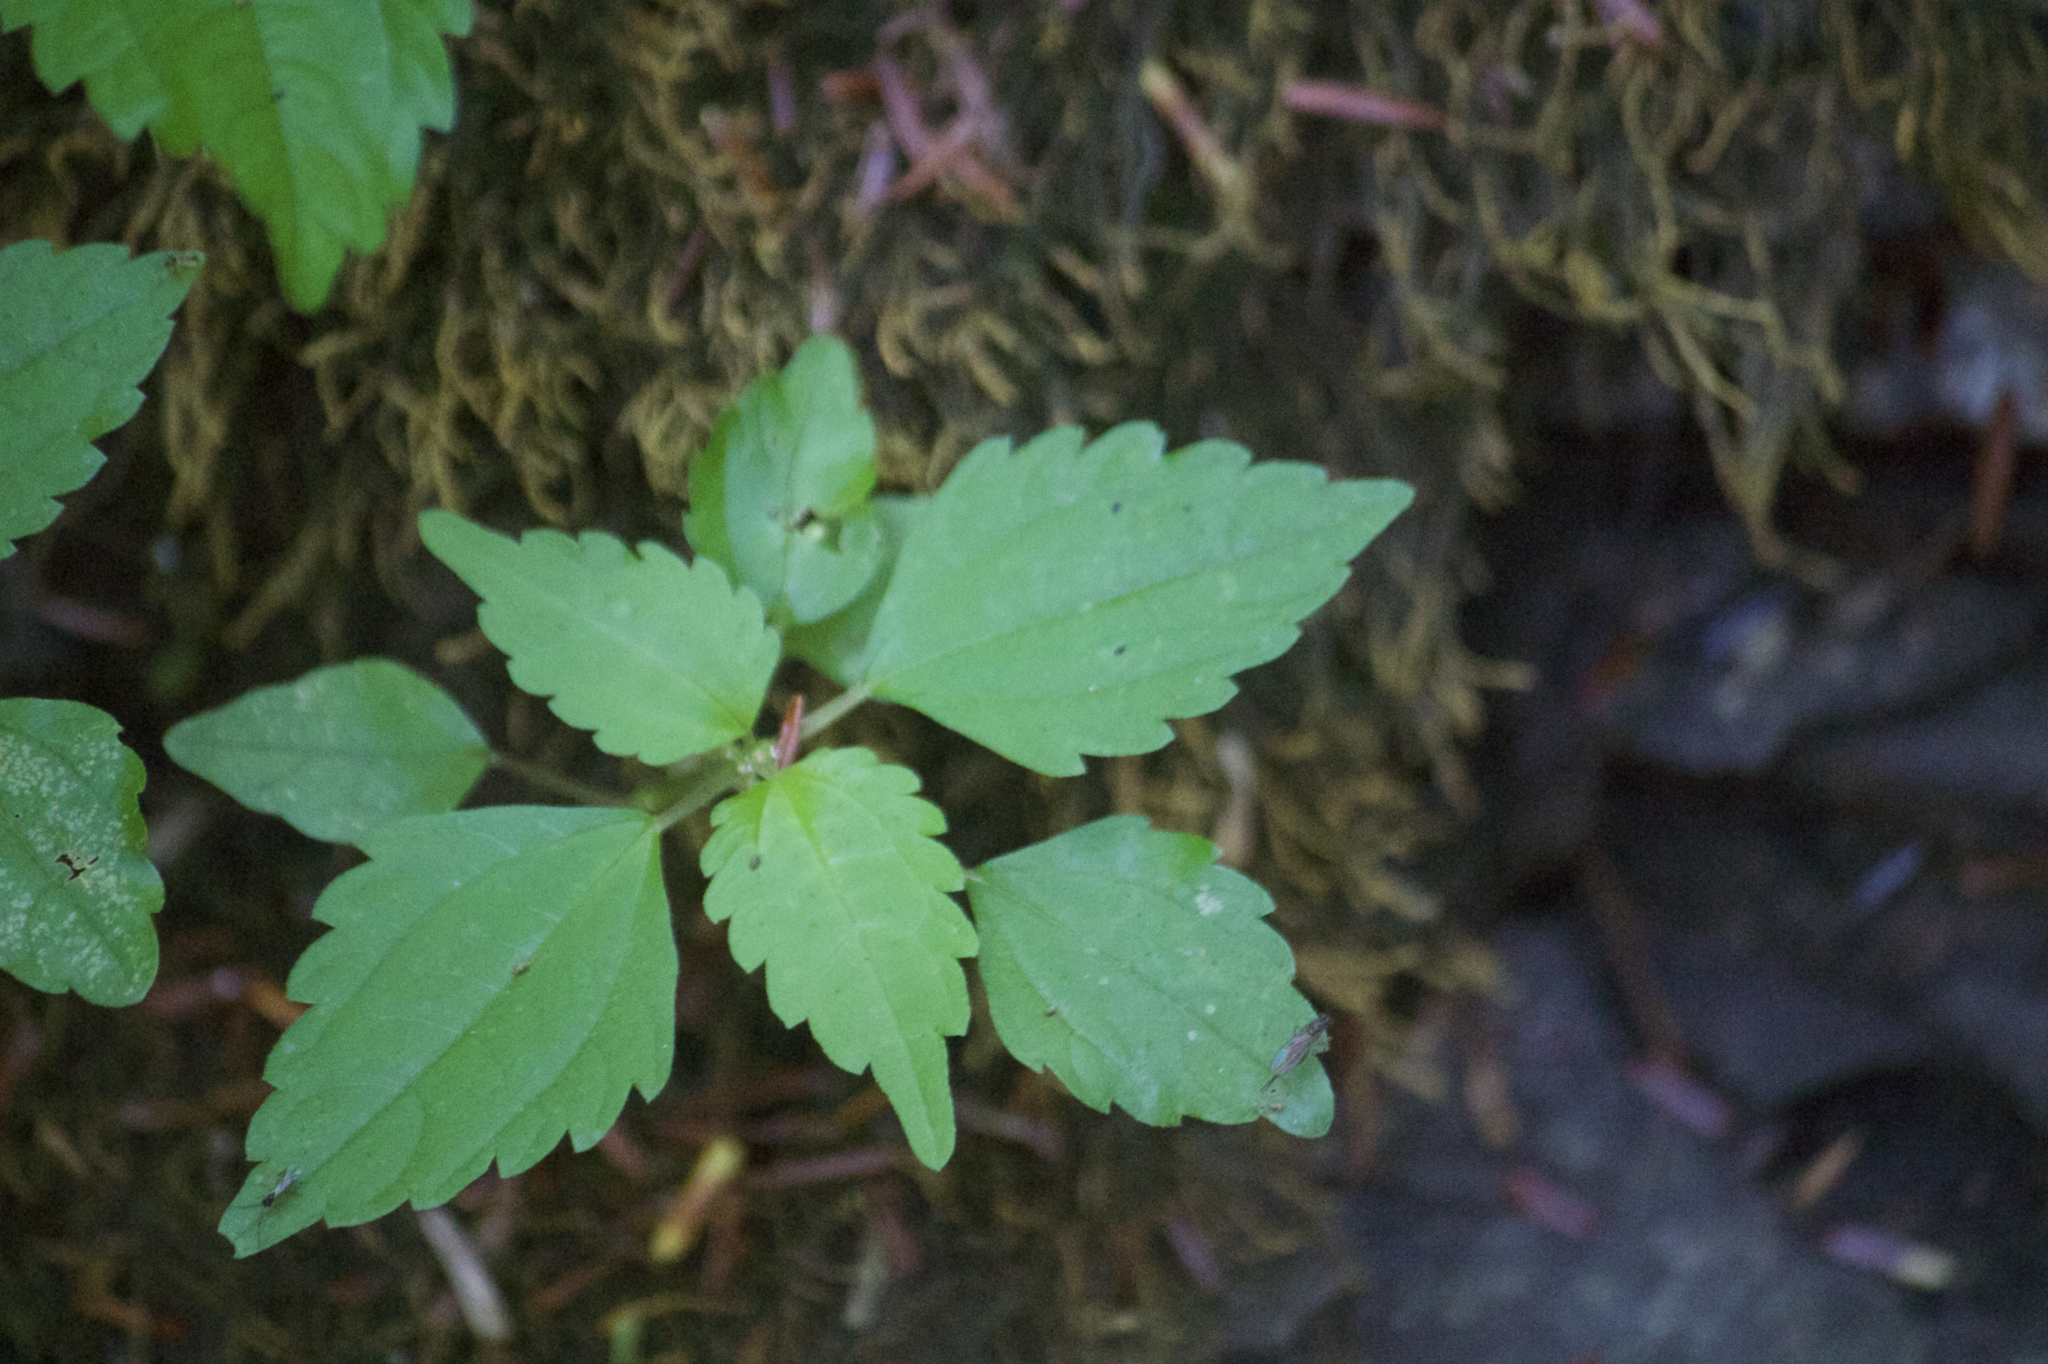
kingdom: Plantae
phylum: Tracheophyta
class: Magnoliopsida
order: Rosales
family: Urticaceae
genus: Pilea
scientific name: Pilea pumila
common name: Clearweed
